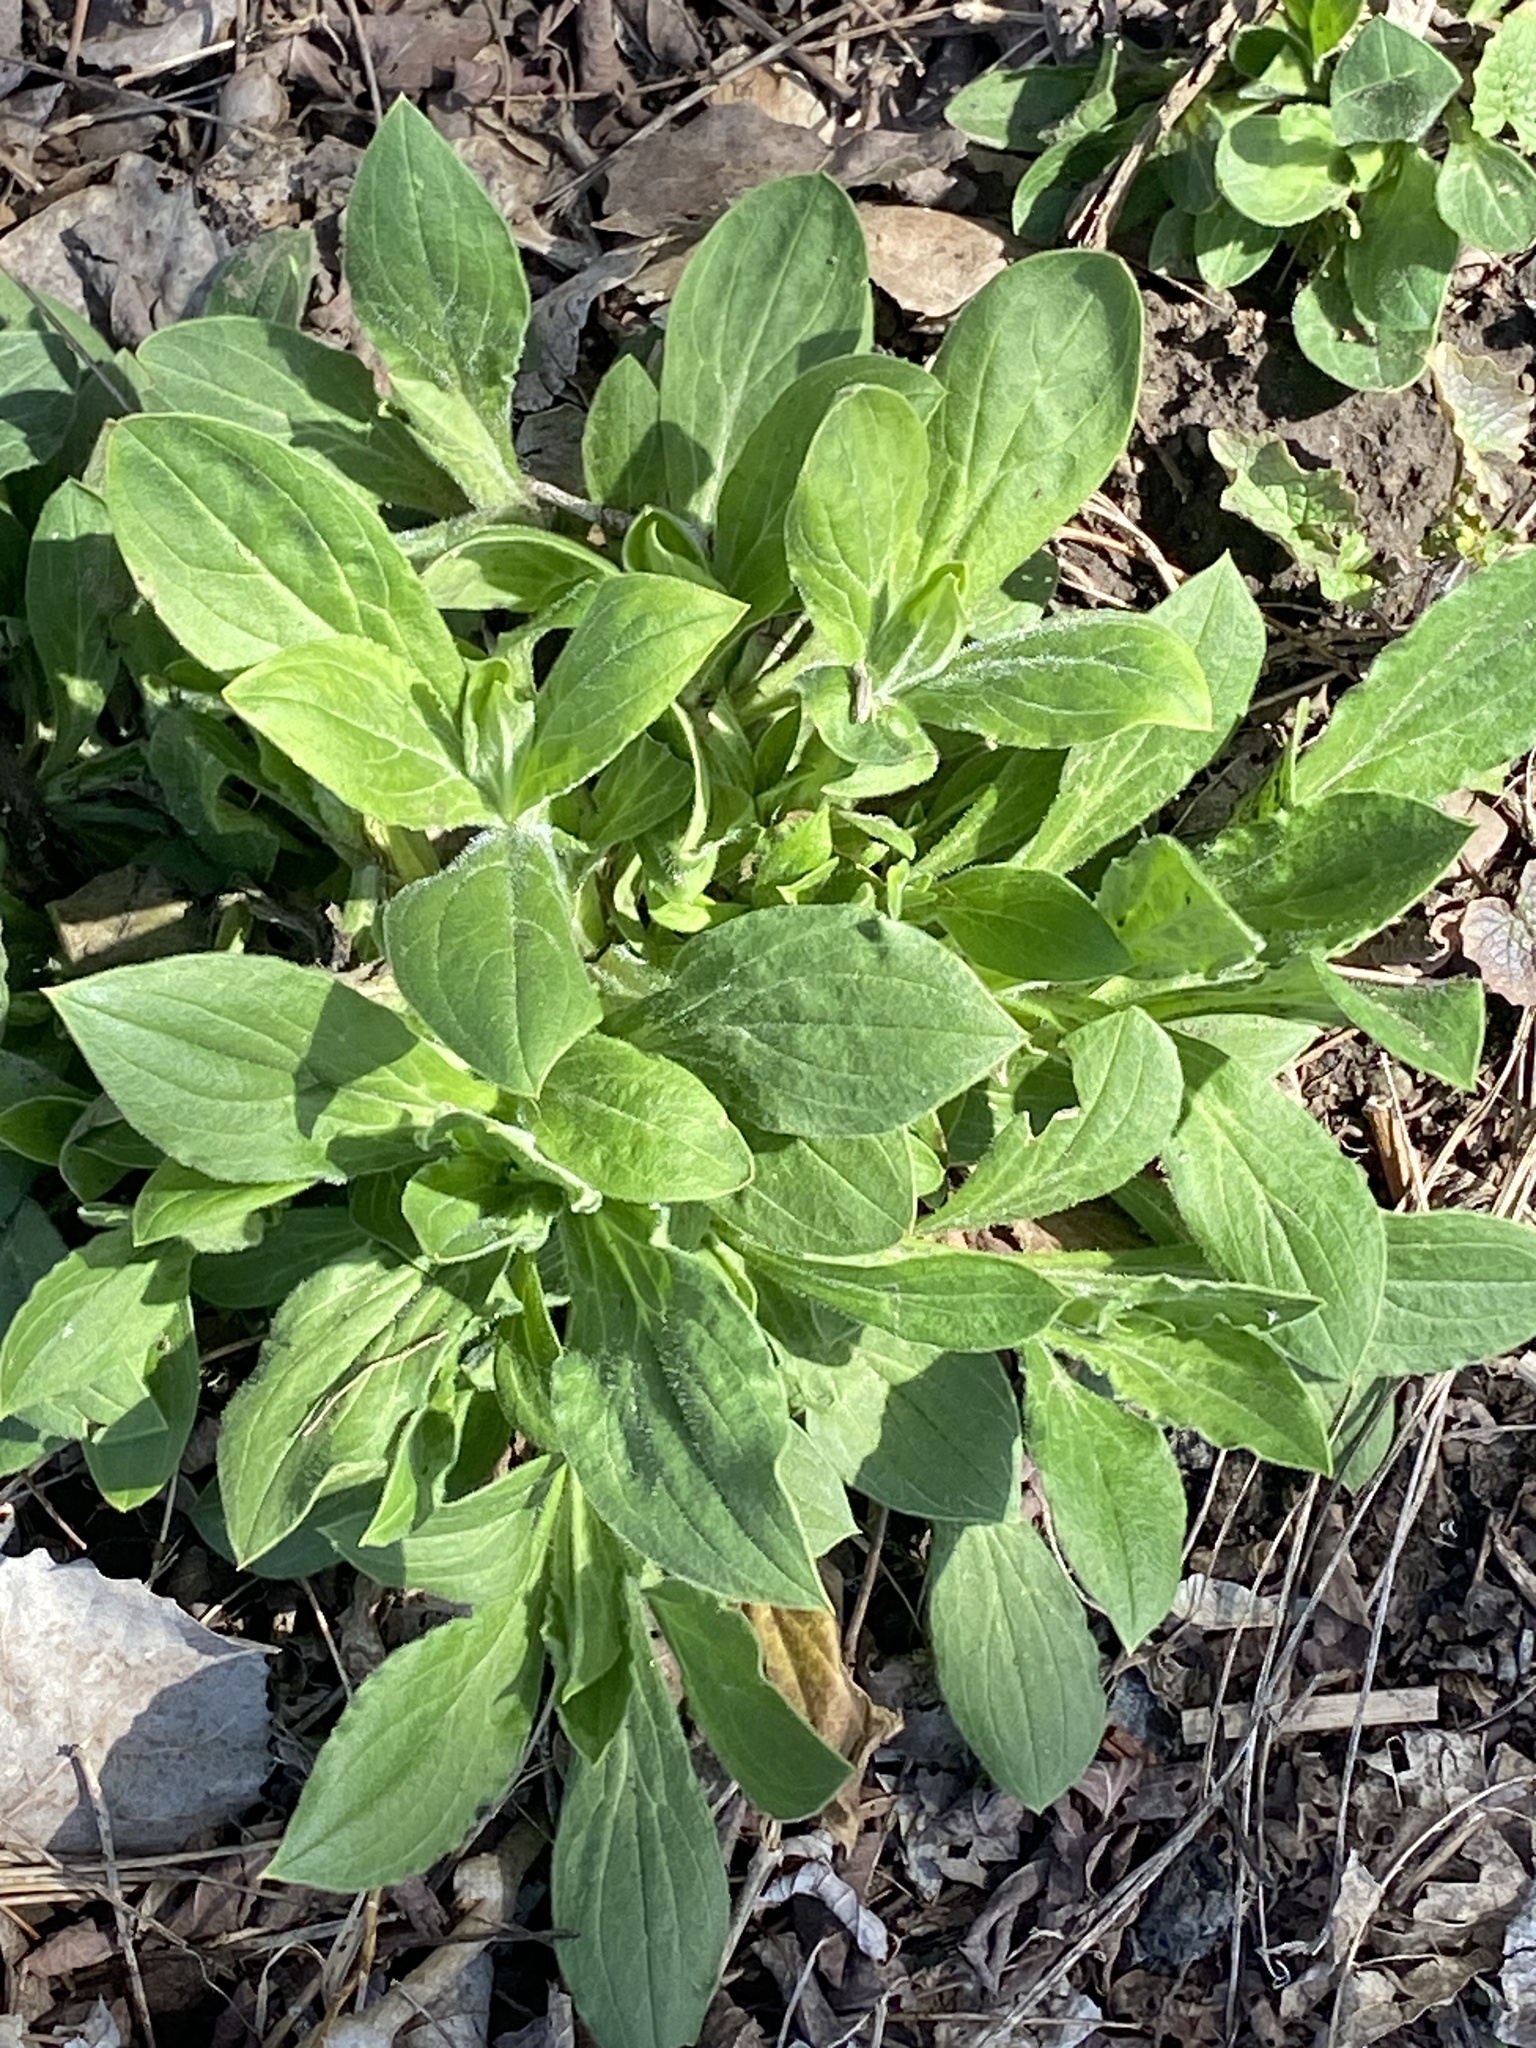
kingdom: Plantae
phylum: Tracheophyta
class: Magnoliopsida
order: Caryophyllales
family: Caryophyllaceae
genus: Silene
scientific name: Silene latifolia
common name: White campion
